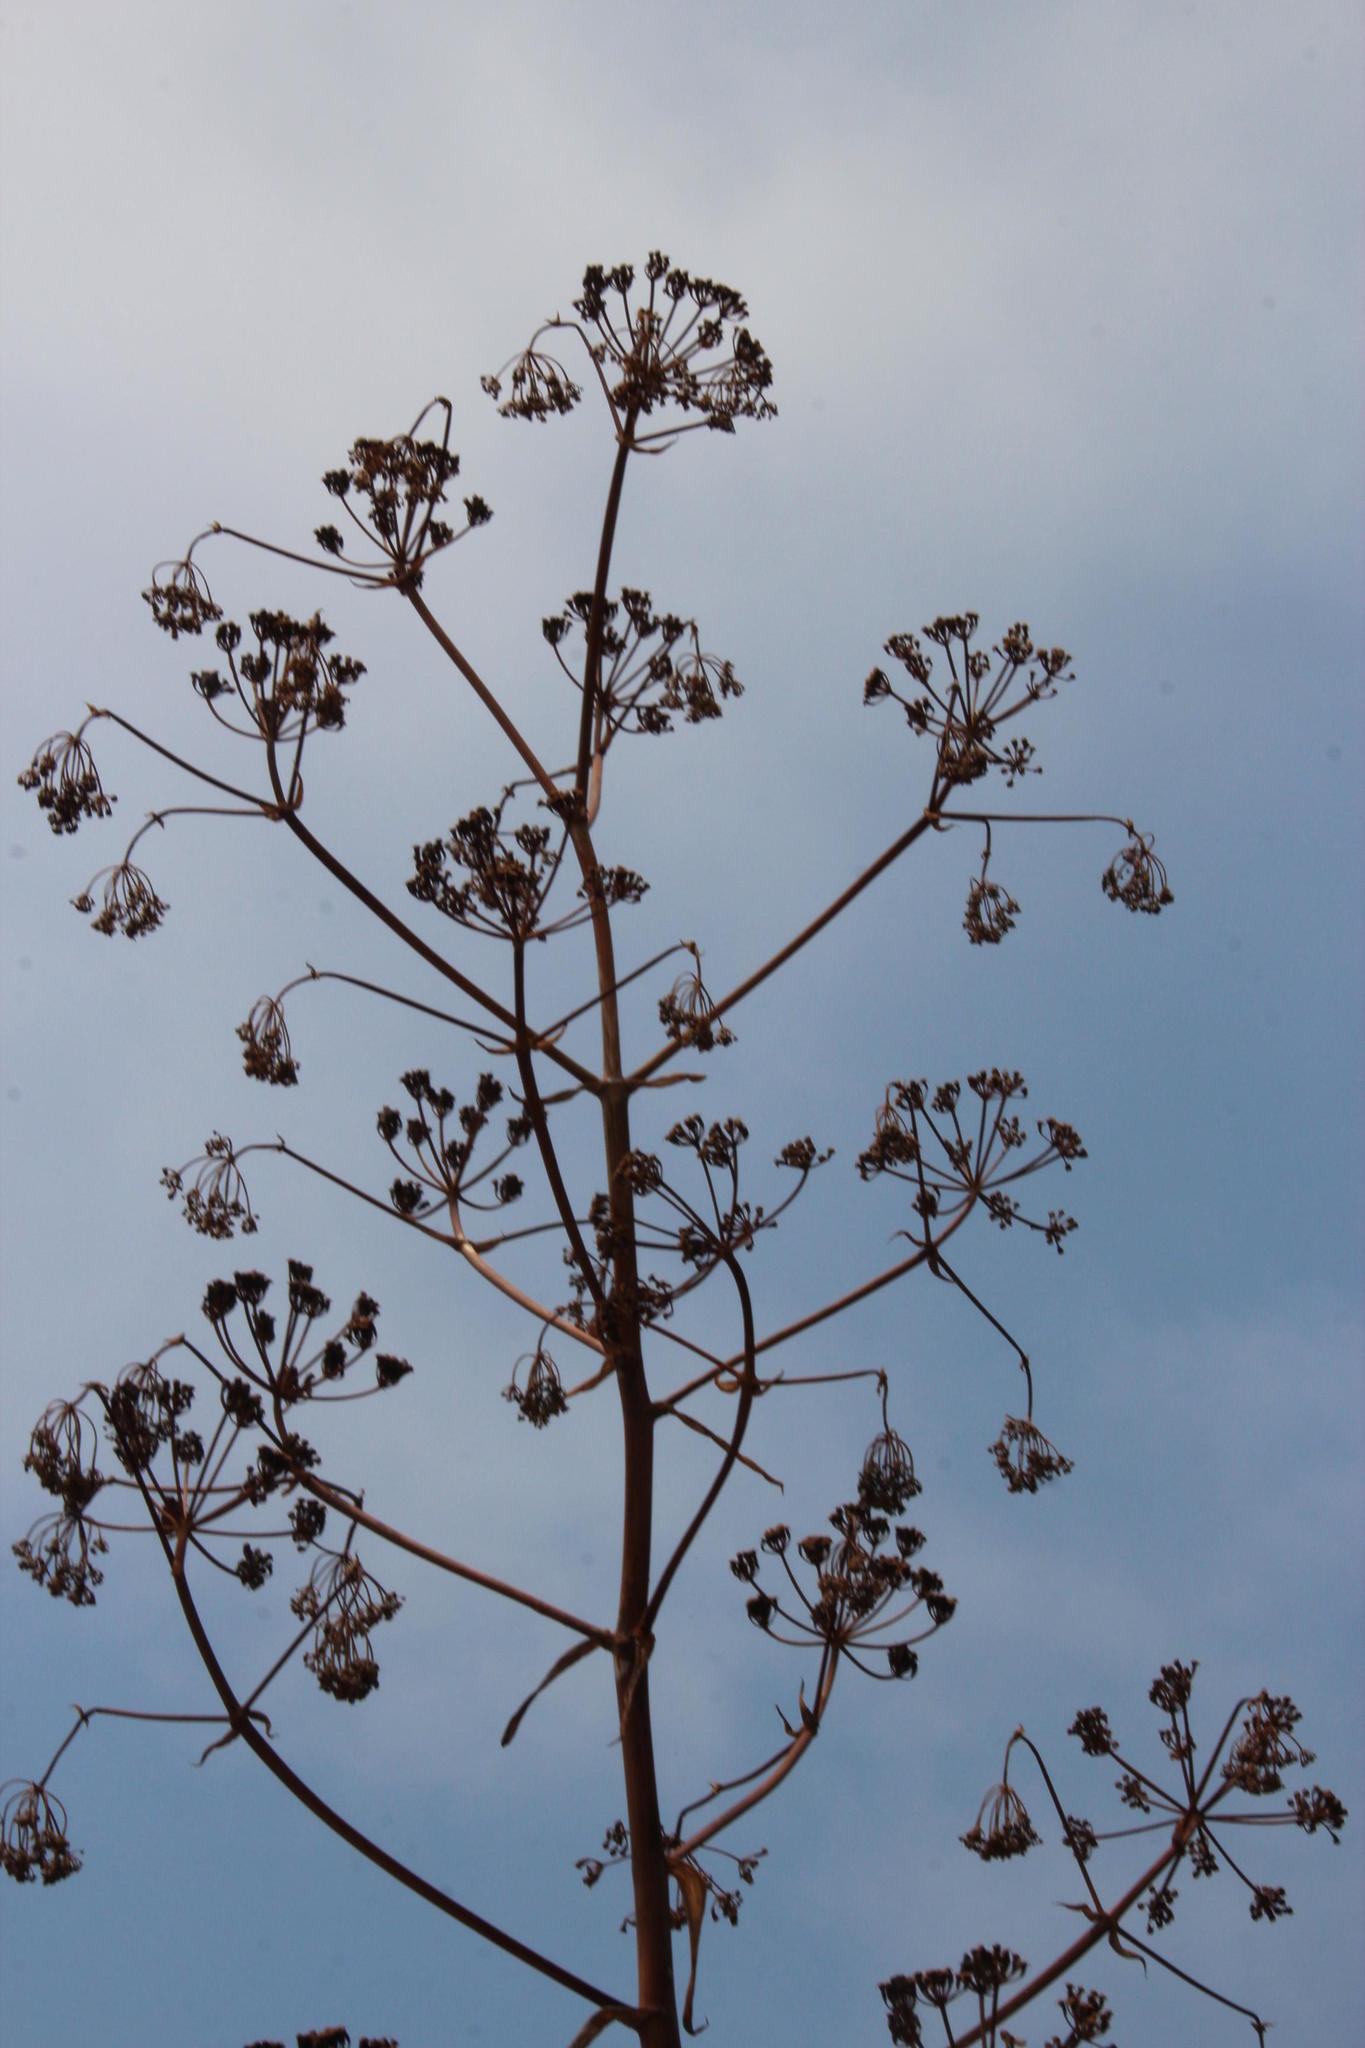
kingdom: Plantae
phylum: Tracheophyta
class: Magnoliopsida
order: Apiales
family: Apiaceae
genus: Ferula
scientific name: Ferula communis
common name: Giant fennel
